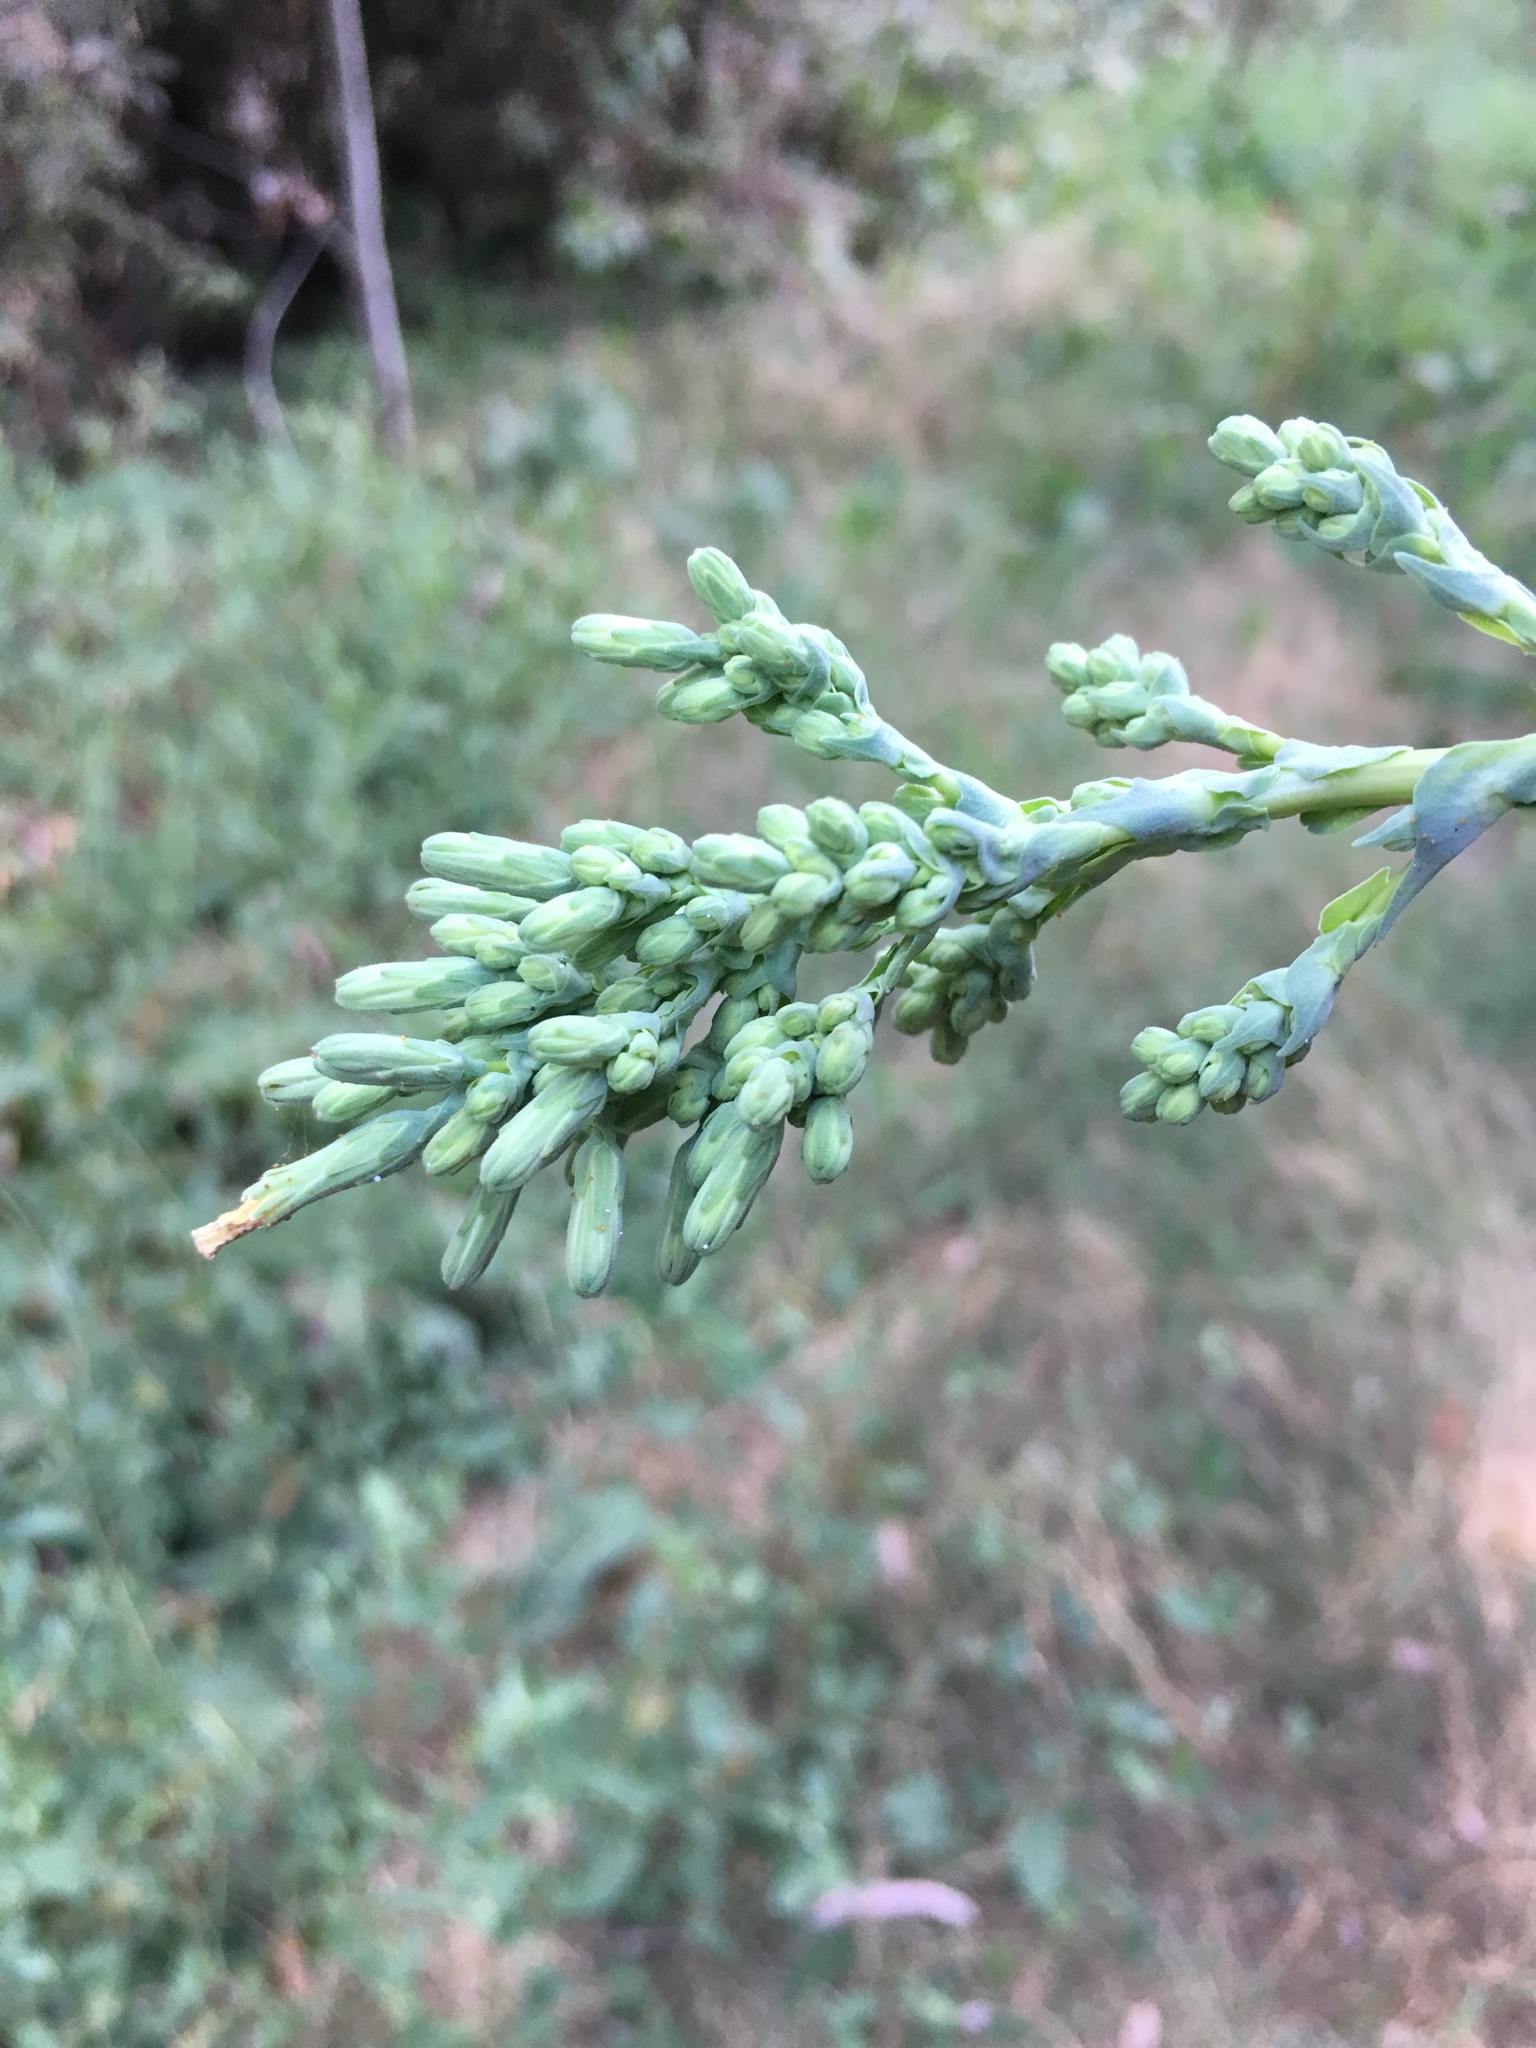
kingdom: Plantae
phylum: Tracheophyta
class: Magnoliopsida
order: Asterales
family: Asteraceae
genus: Lactuca
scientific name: Lactuca serriola
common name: Prickly lettuce
